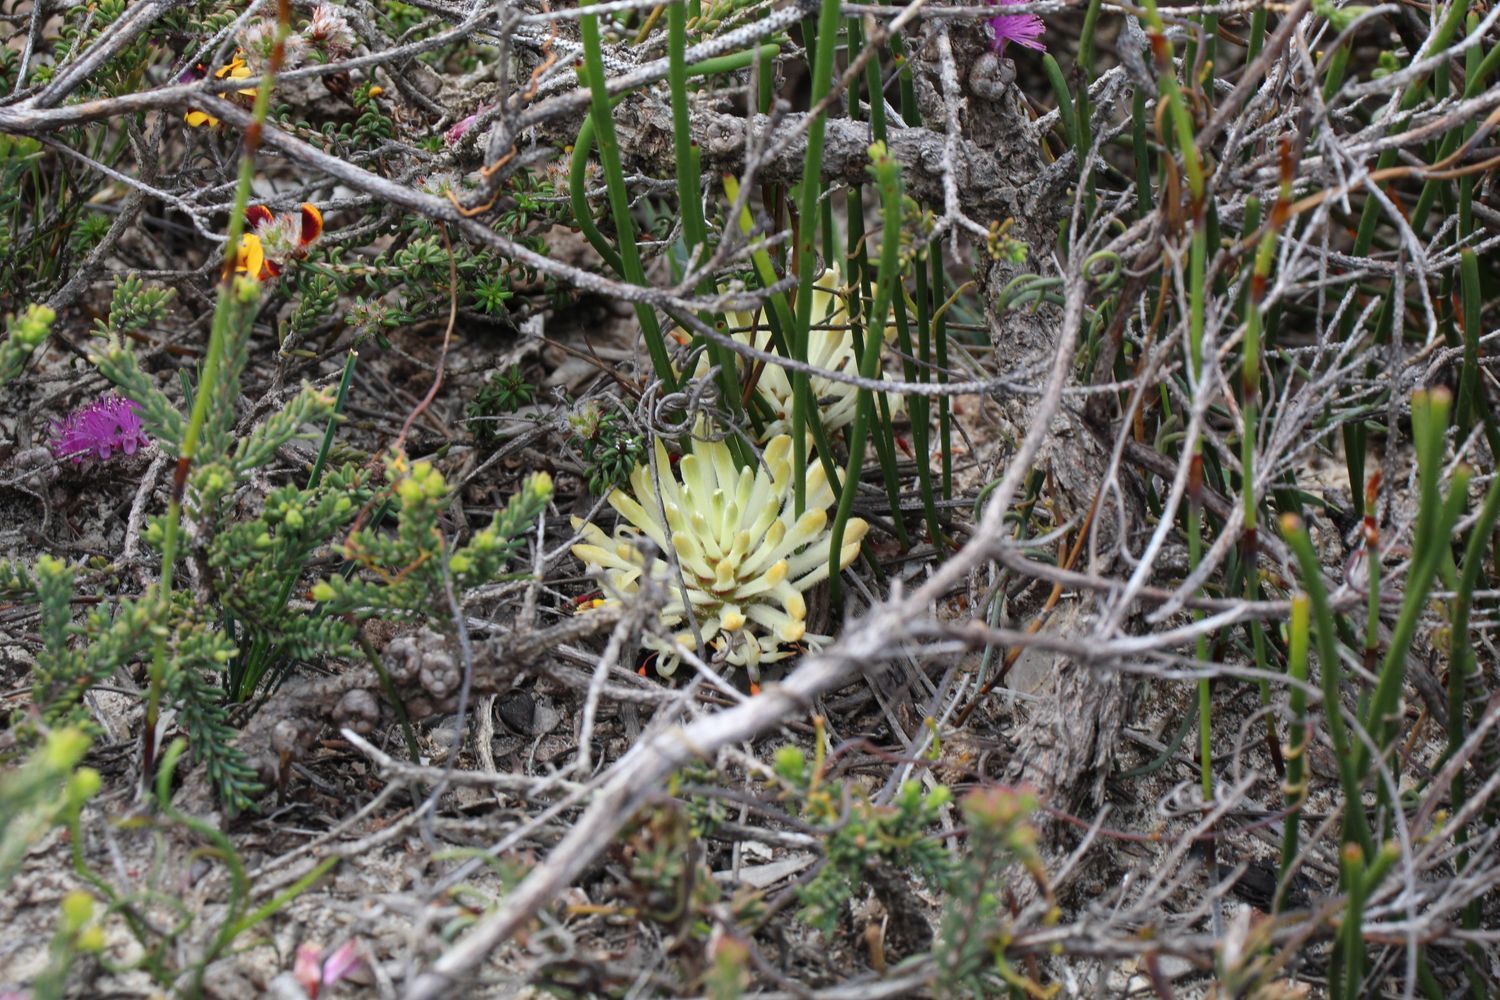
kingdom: Plantae
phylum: Tracheophyta
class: Magnoliopsida
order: Proteales
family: Proteaceae
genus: Petrophile
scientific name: Petrophile prostrata
